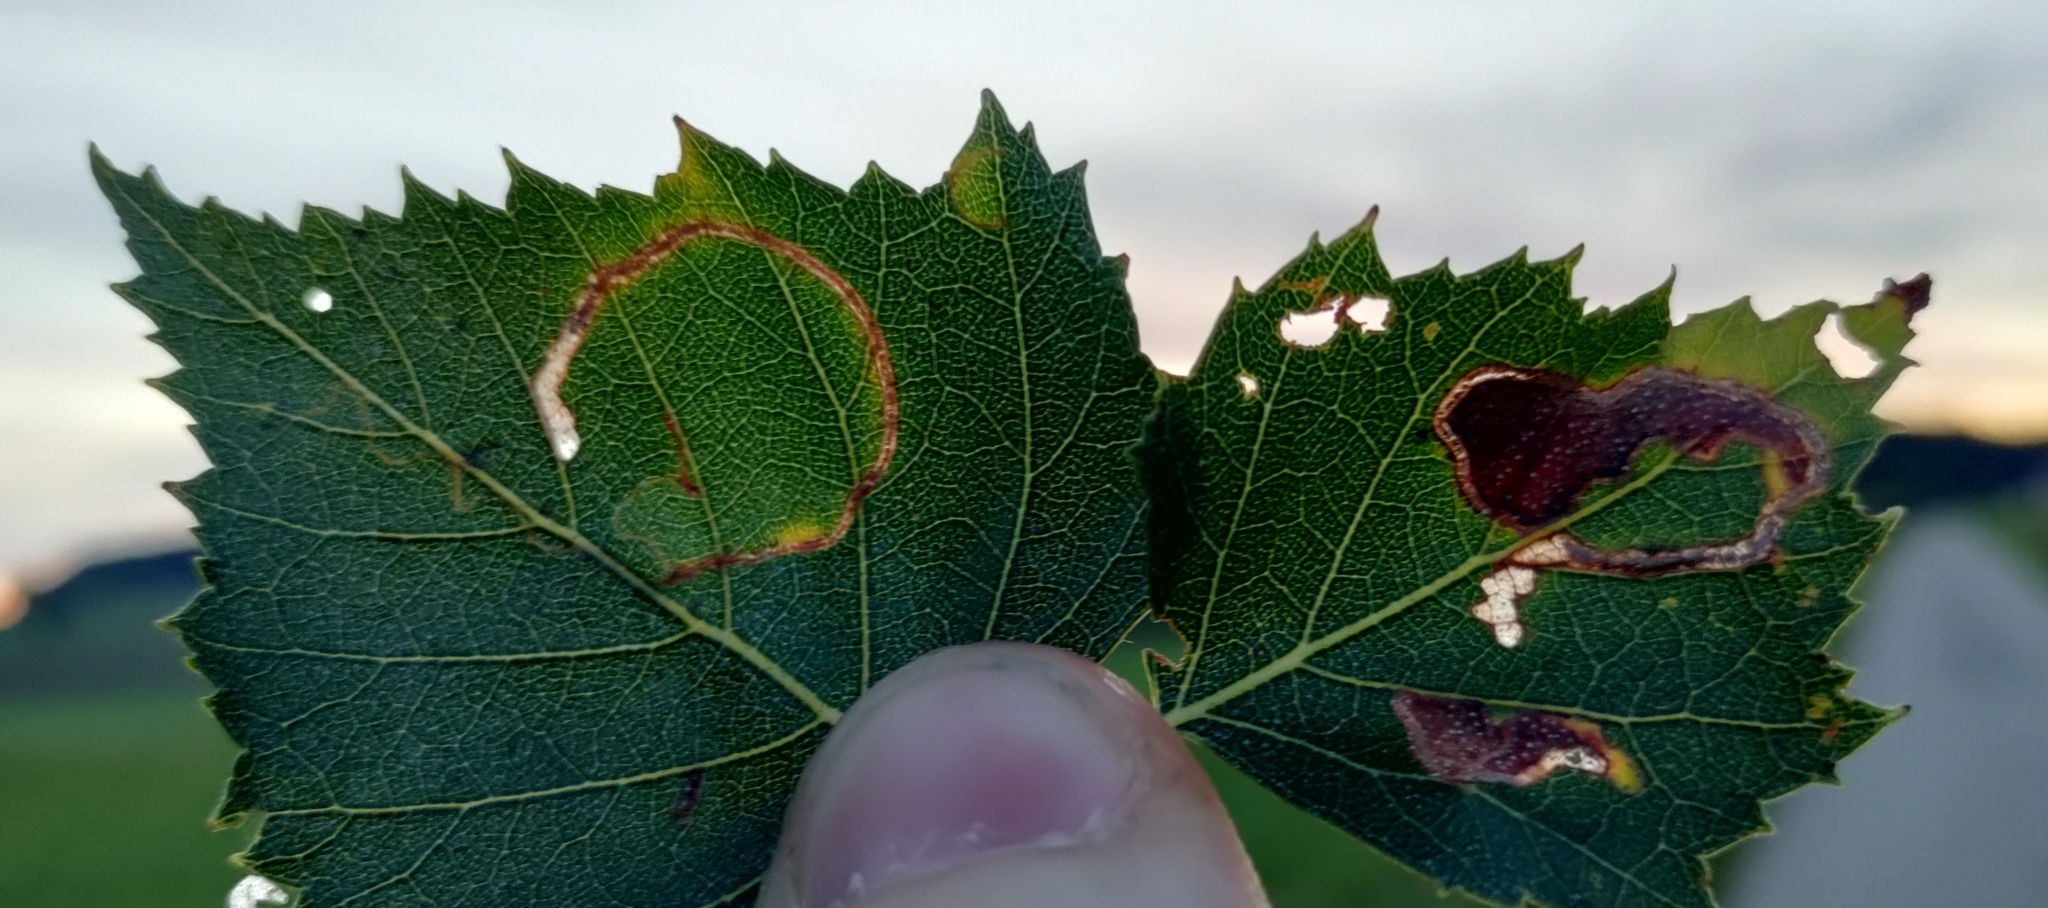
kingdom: Animalia
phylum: Arthropoda
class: Insecta
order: Lepidoptera
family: Lyonetiidae
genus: Lyonetia
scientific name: Lyonetia clerkella
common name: Apple leaf miner
